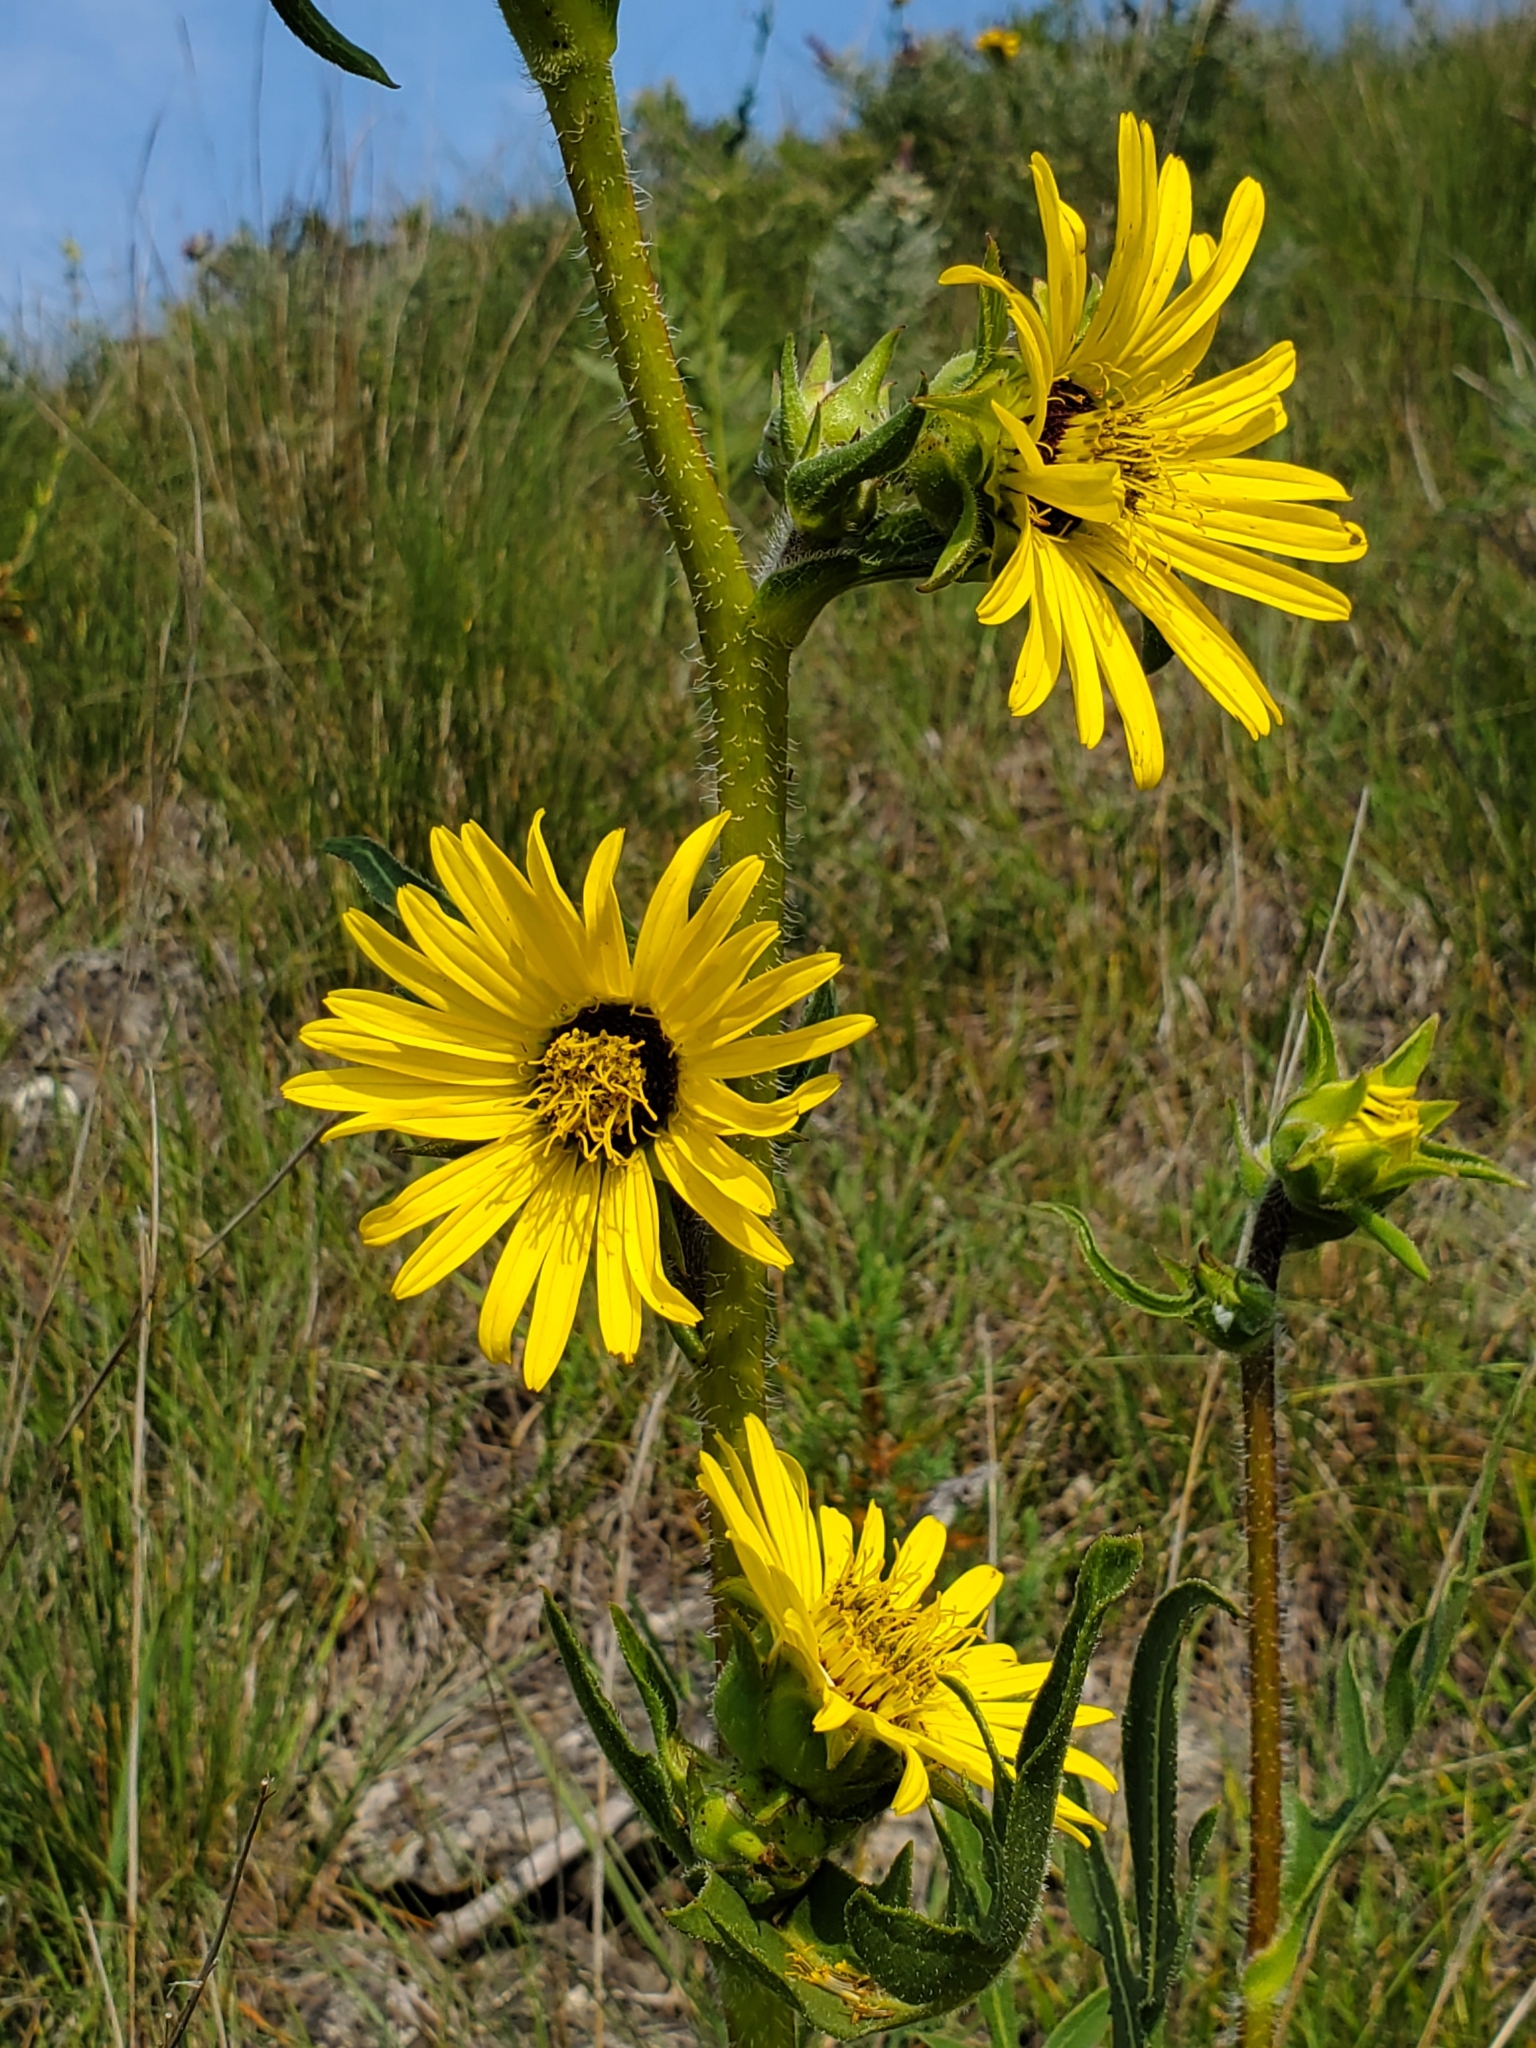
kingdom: Plantae
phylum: Tracheophyta
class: Magnoliopsida
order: Asterales
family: Asteraceae
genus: Silphium
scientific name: Silphium laciniatum
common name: Polarplant
